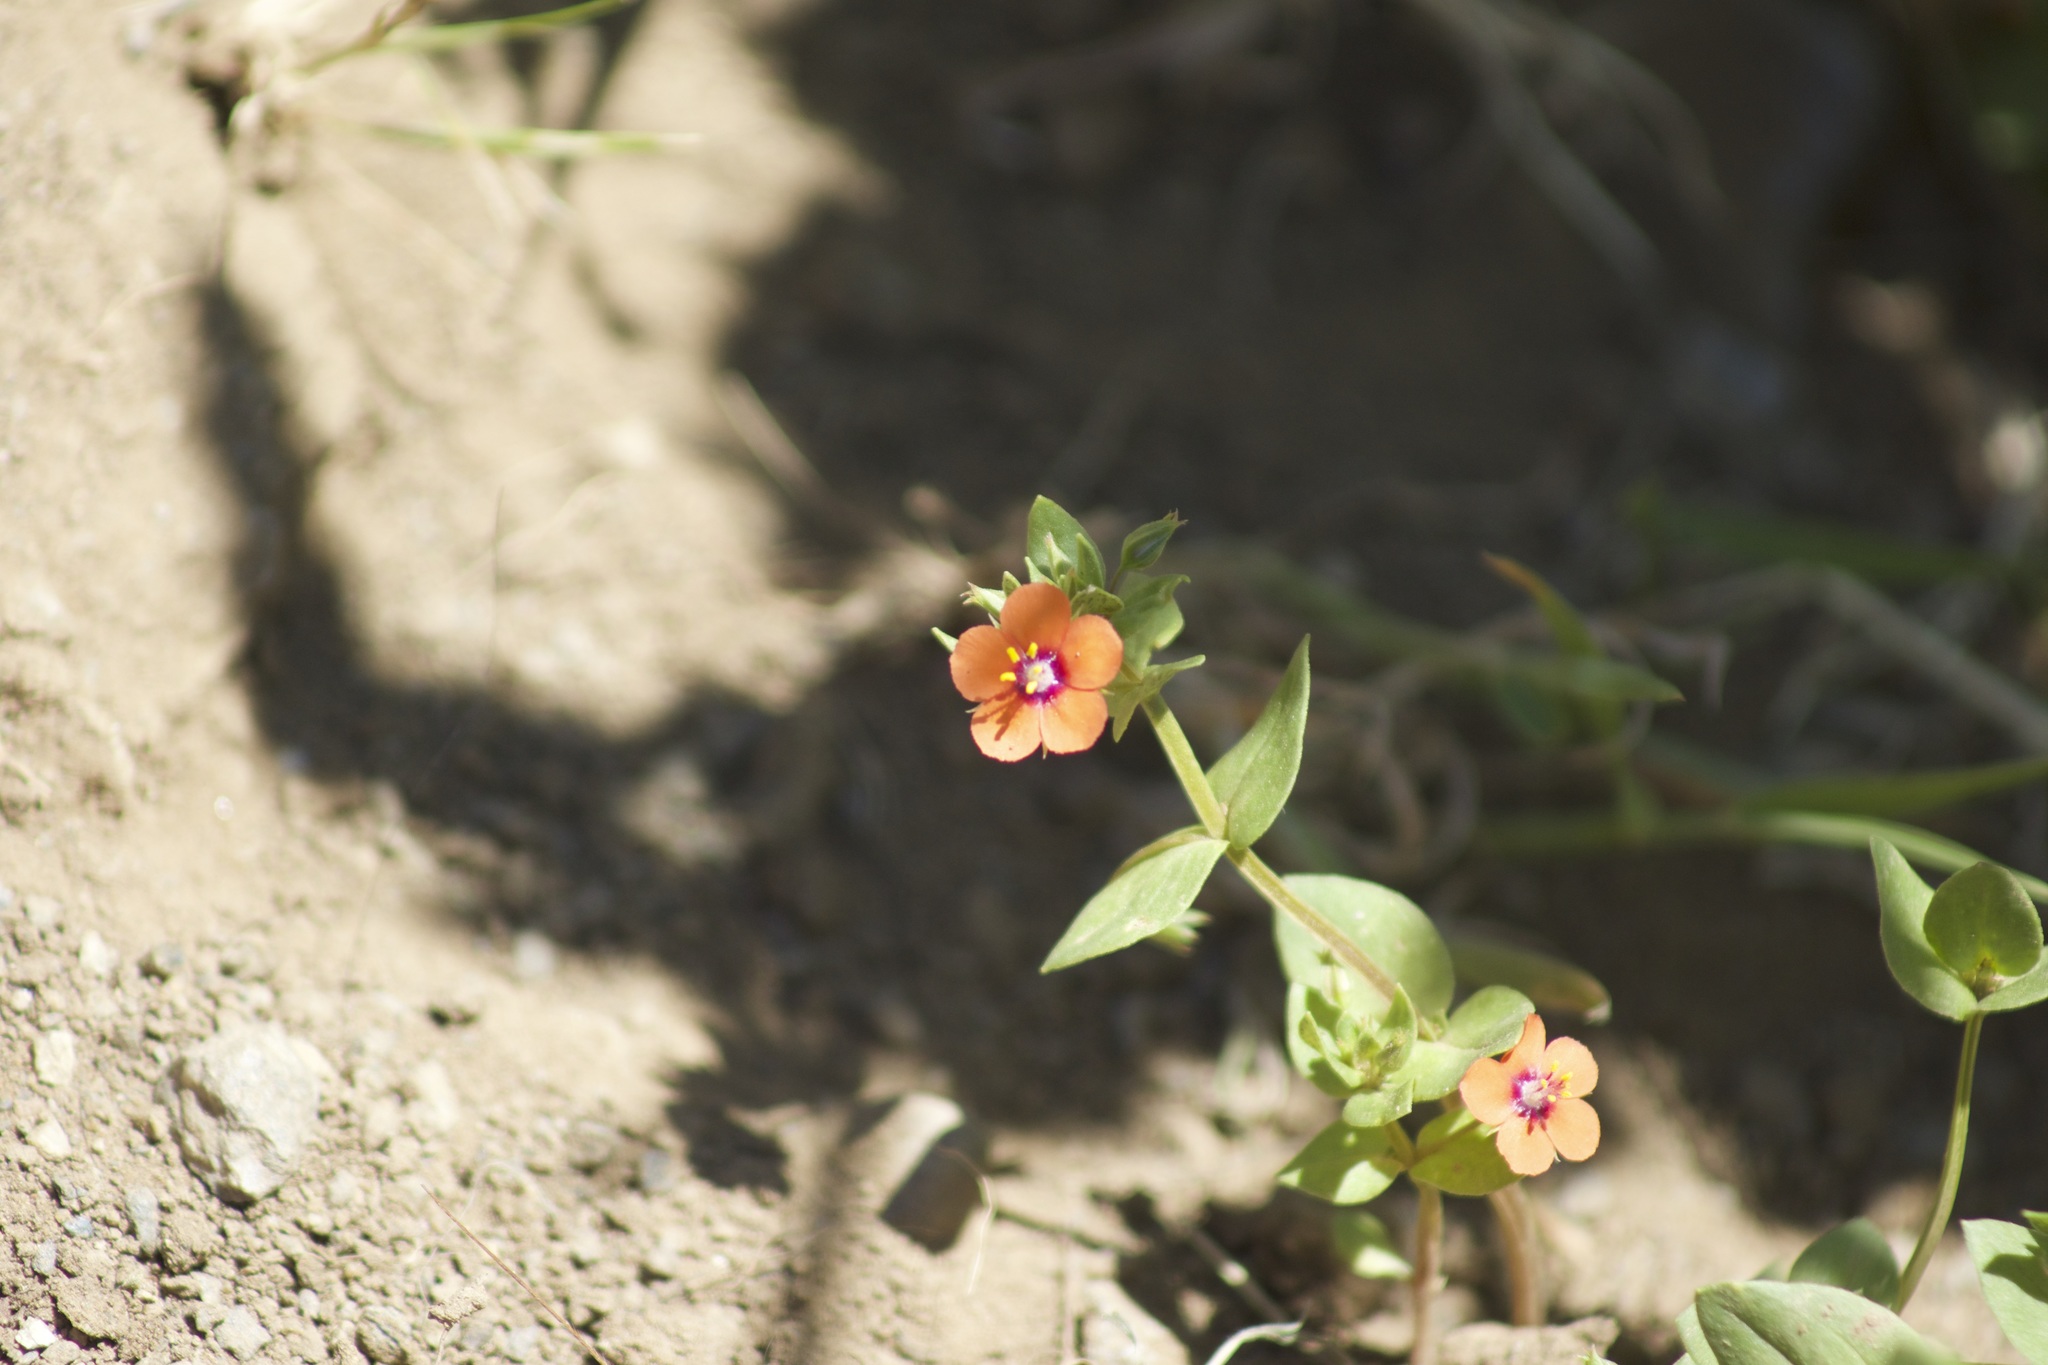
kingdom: Plantae
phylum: Tracheophyta
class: Magnoliopsida
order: Ericales
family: Primulaceae
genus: Lysimachia
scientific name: Lysimachia arvensis
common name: Scarlet pimpernel
